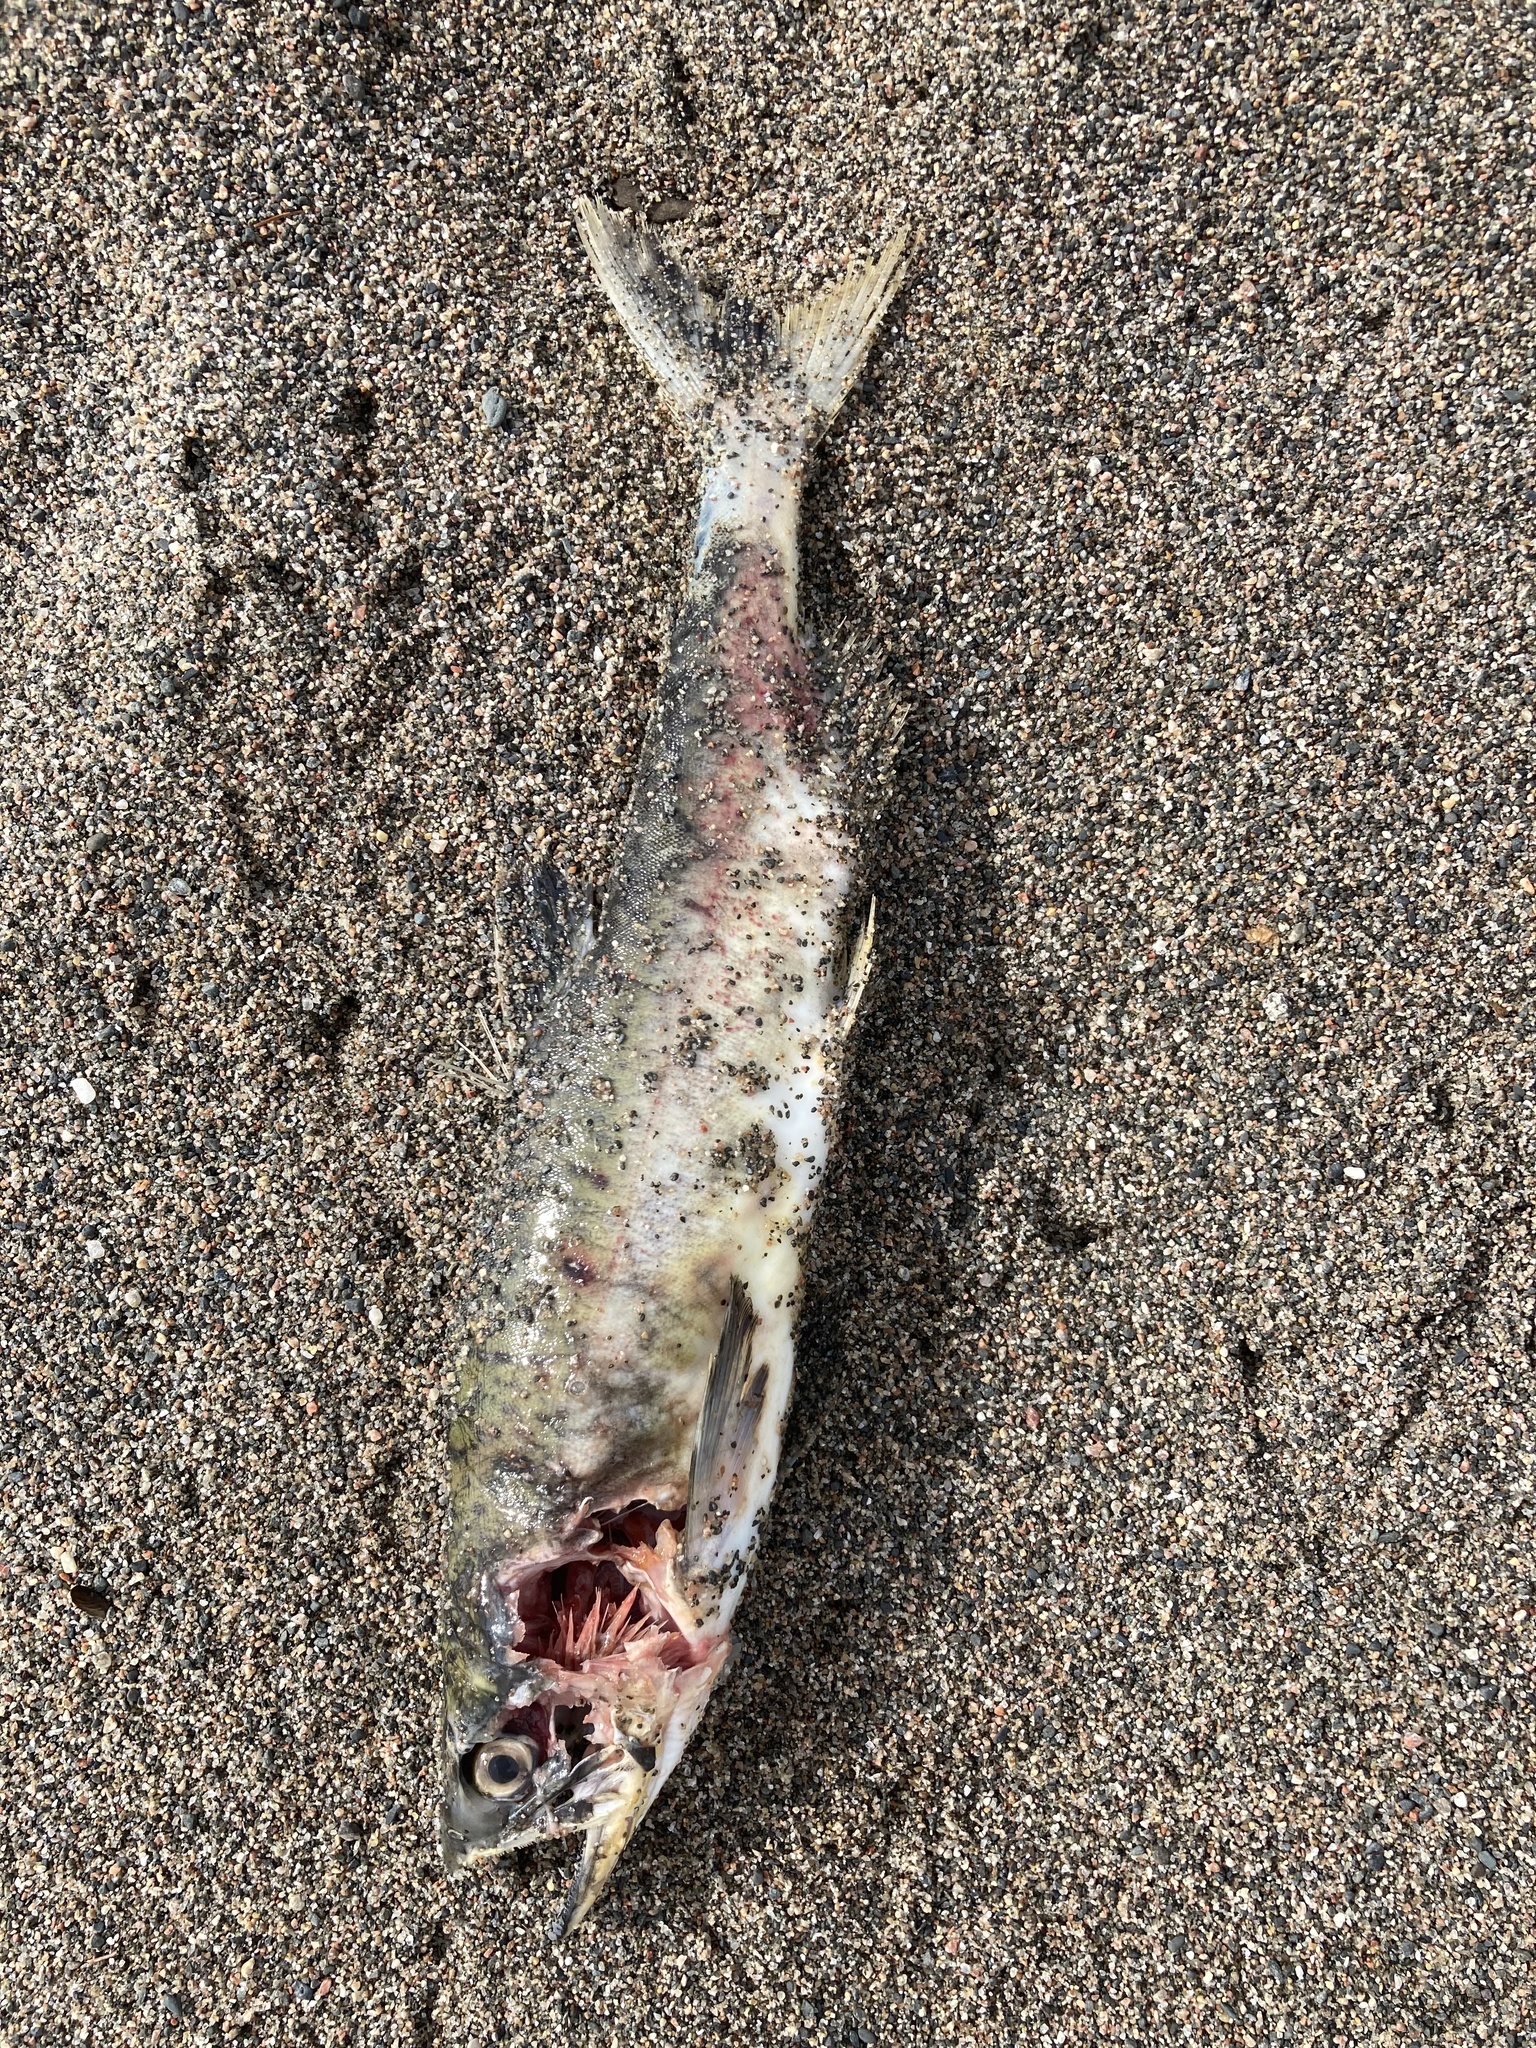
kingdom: Animalia
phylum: Chordata
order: Salmoniformes
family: Salmonidae
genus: Oncorhynchus
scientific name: Oncorhynchus gorbuscha
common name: Humpback salmon
